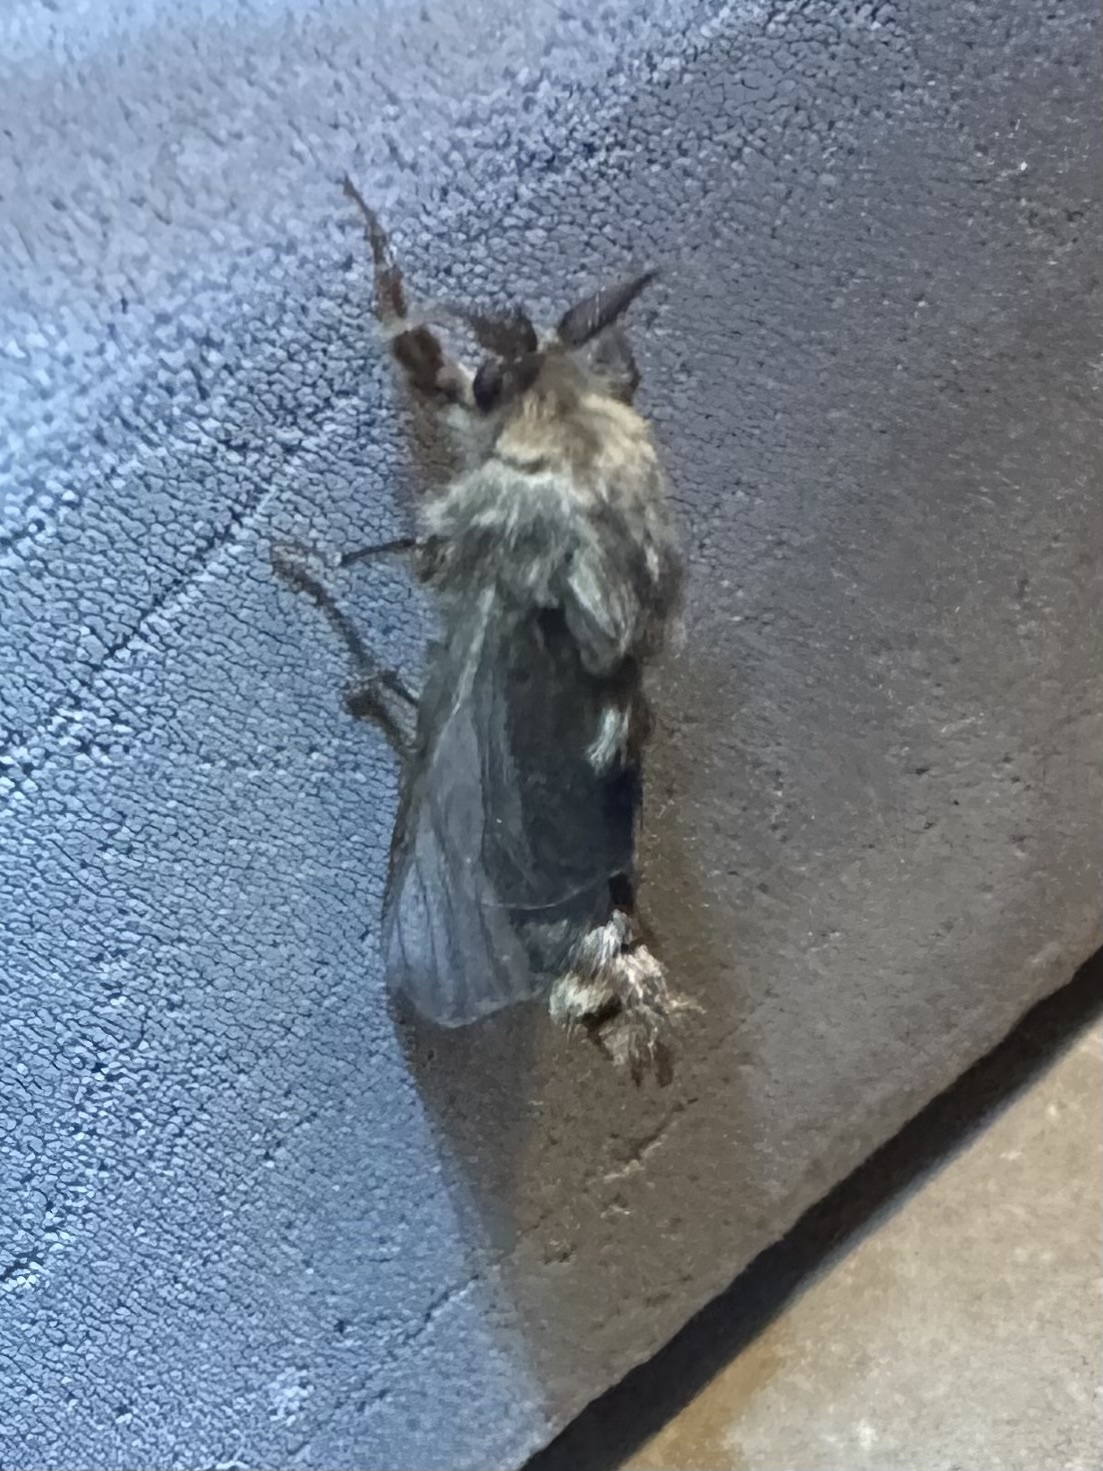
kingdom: Animalia
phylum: Arthropoda
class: Insecta
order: Lepidoptera
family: Psychidae
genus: Thyridopteryx
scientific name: Thyridopteryx ephemeraeformis
